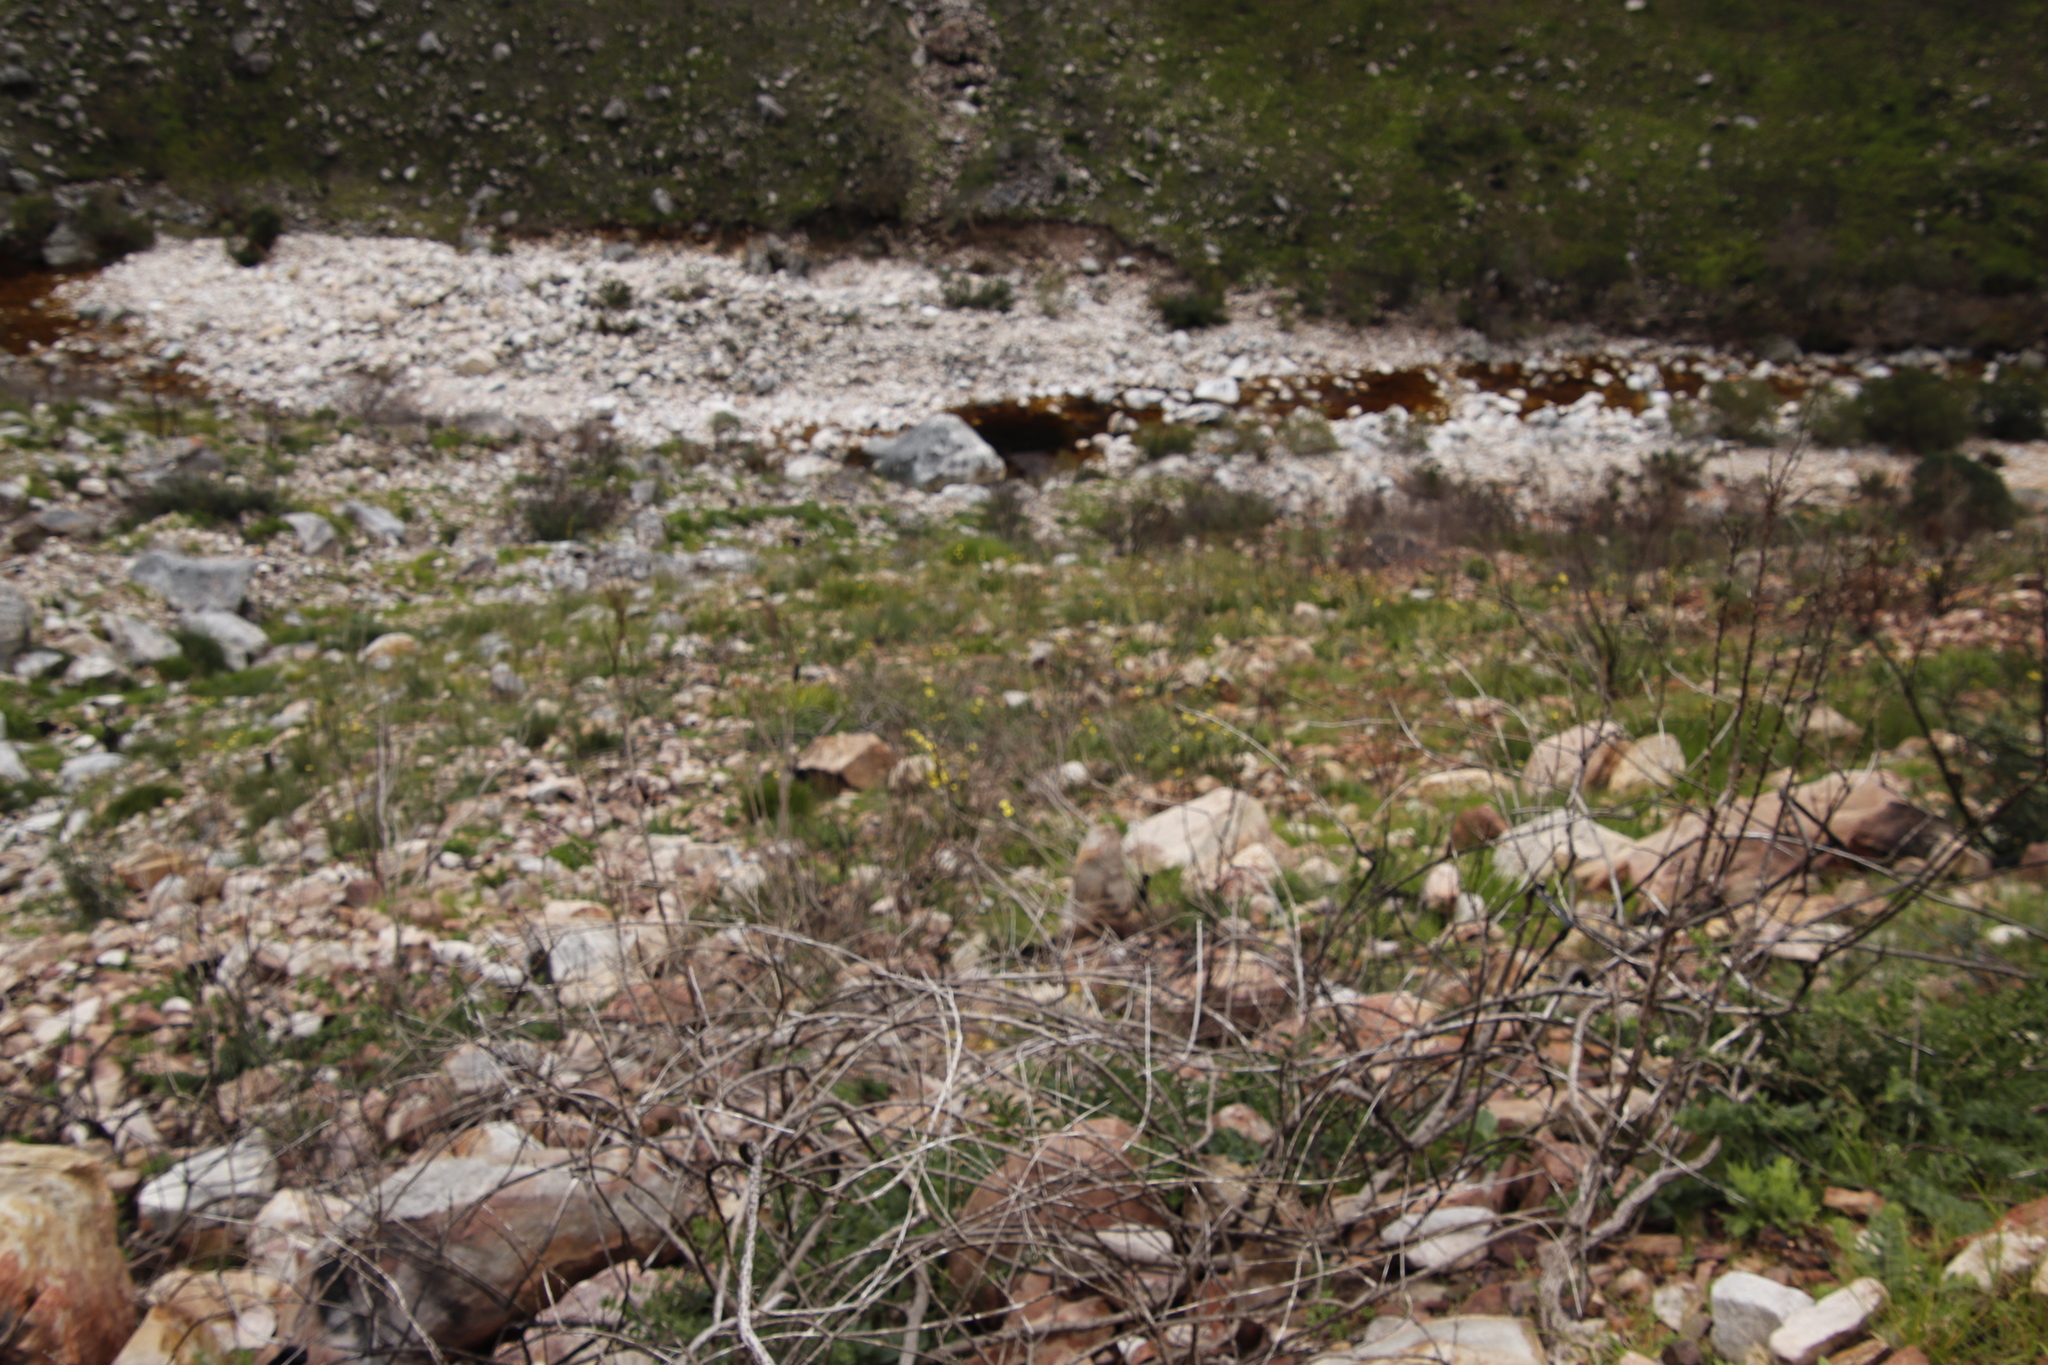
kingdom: Plantae
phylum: Tracheophyta
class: Liliopsida
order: Asparagales
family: Iridaceae
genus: Moraea
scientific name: Moraea ochroleuca
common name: Red tulp
